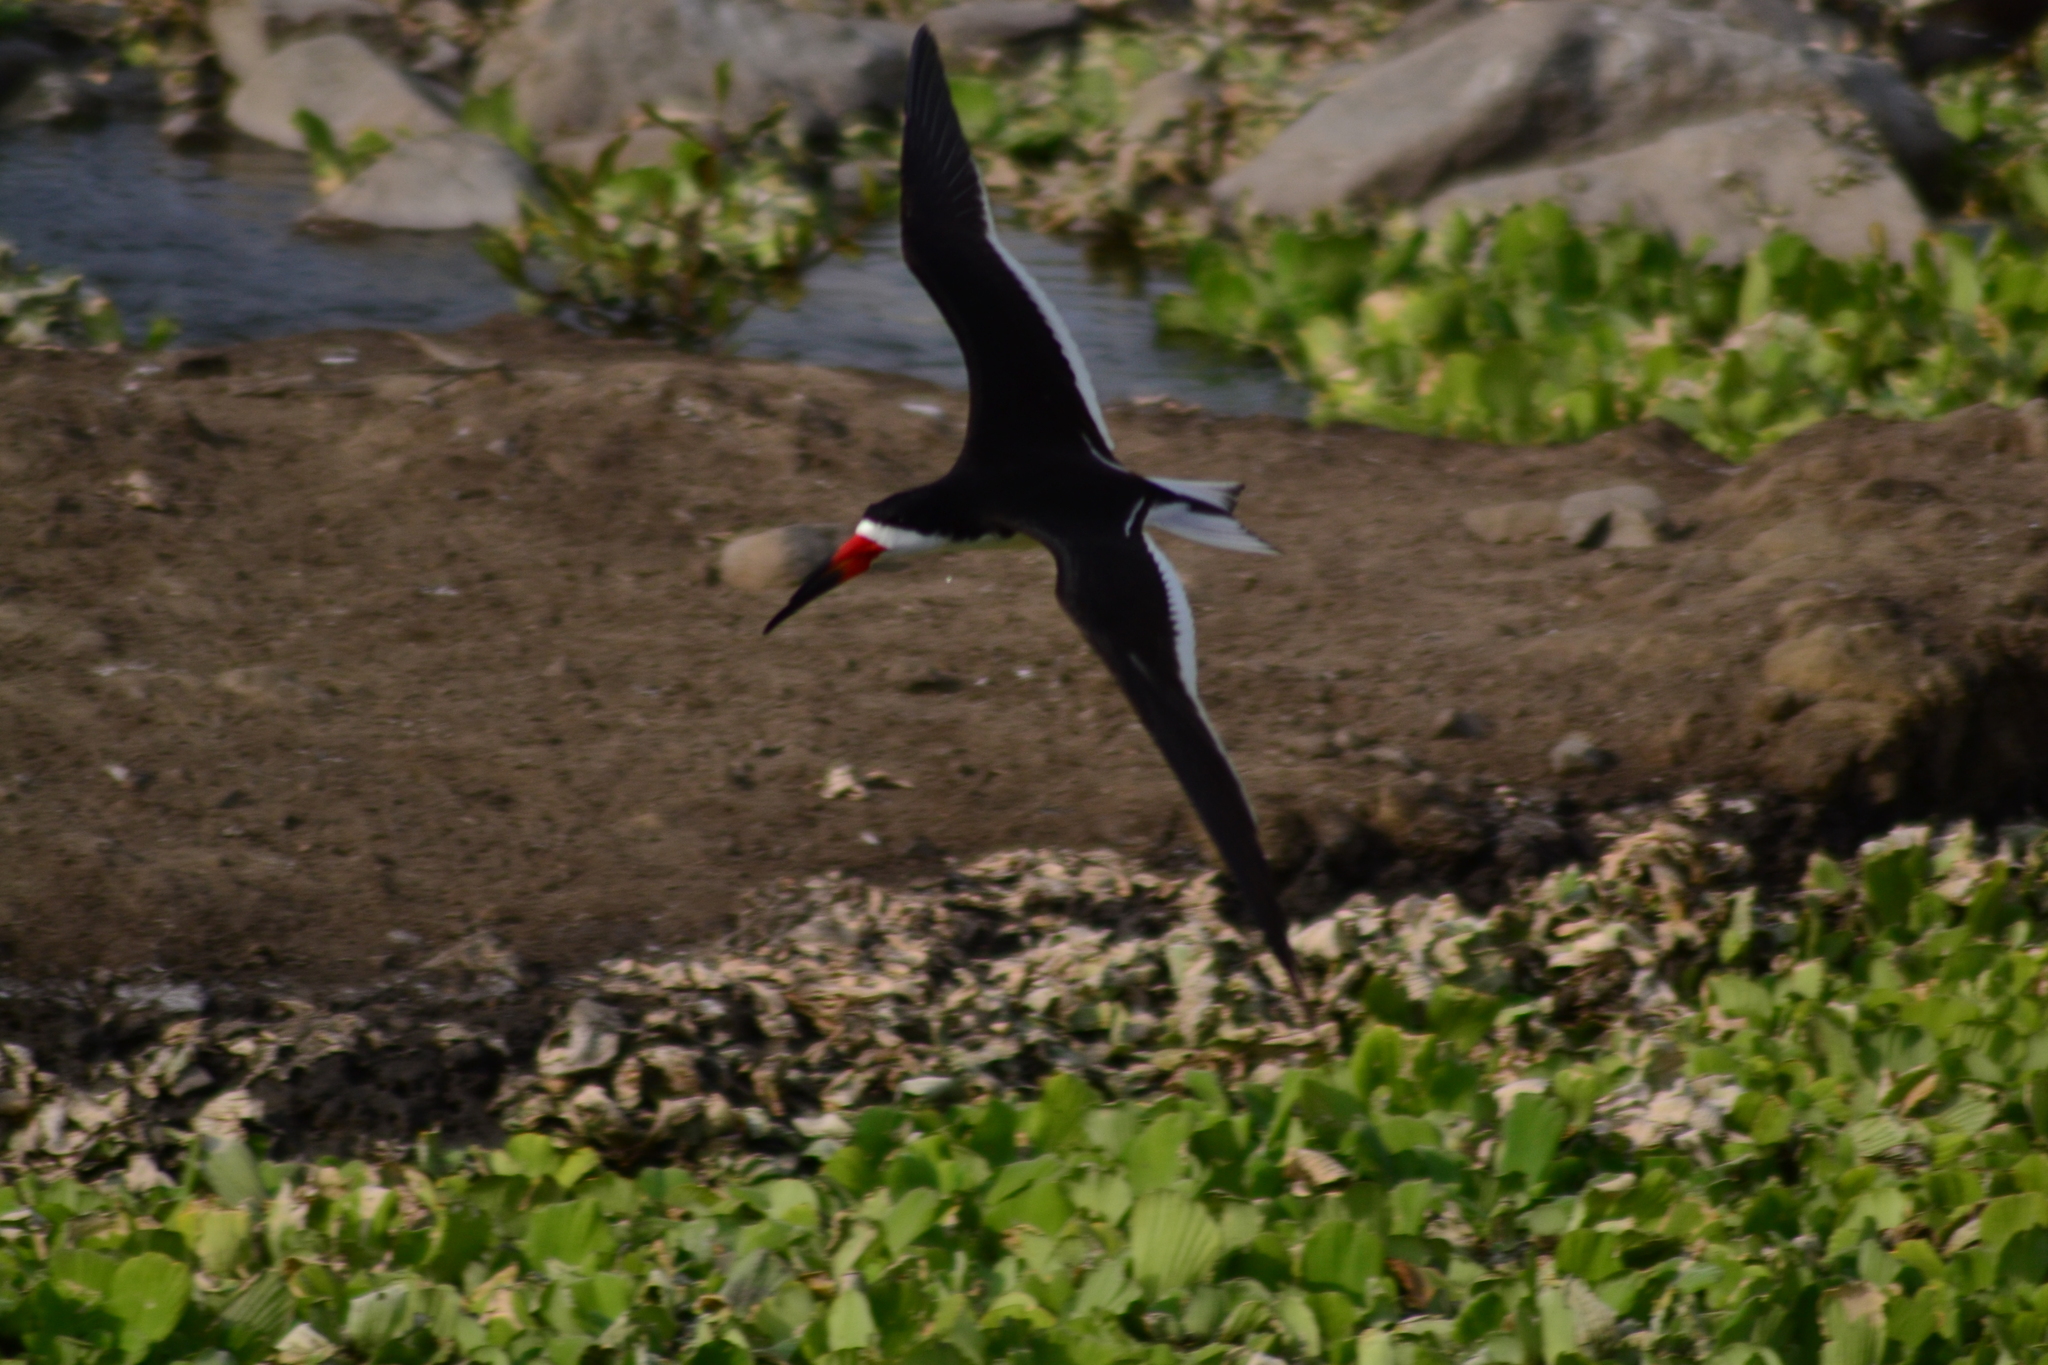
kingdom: Animalia
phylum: Chordata
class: Aves
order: Charadriiformes
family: Laridae
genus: Rynchops
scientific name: Rynchops niger
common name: Black skimmer
